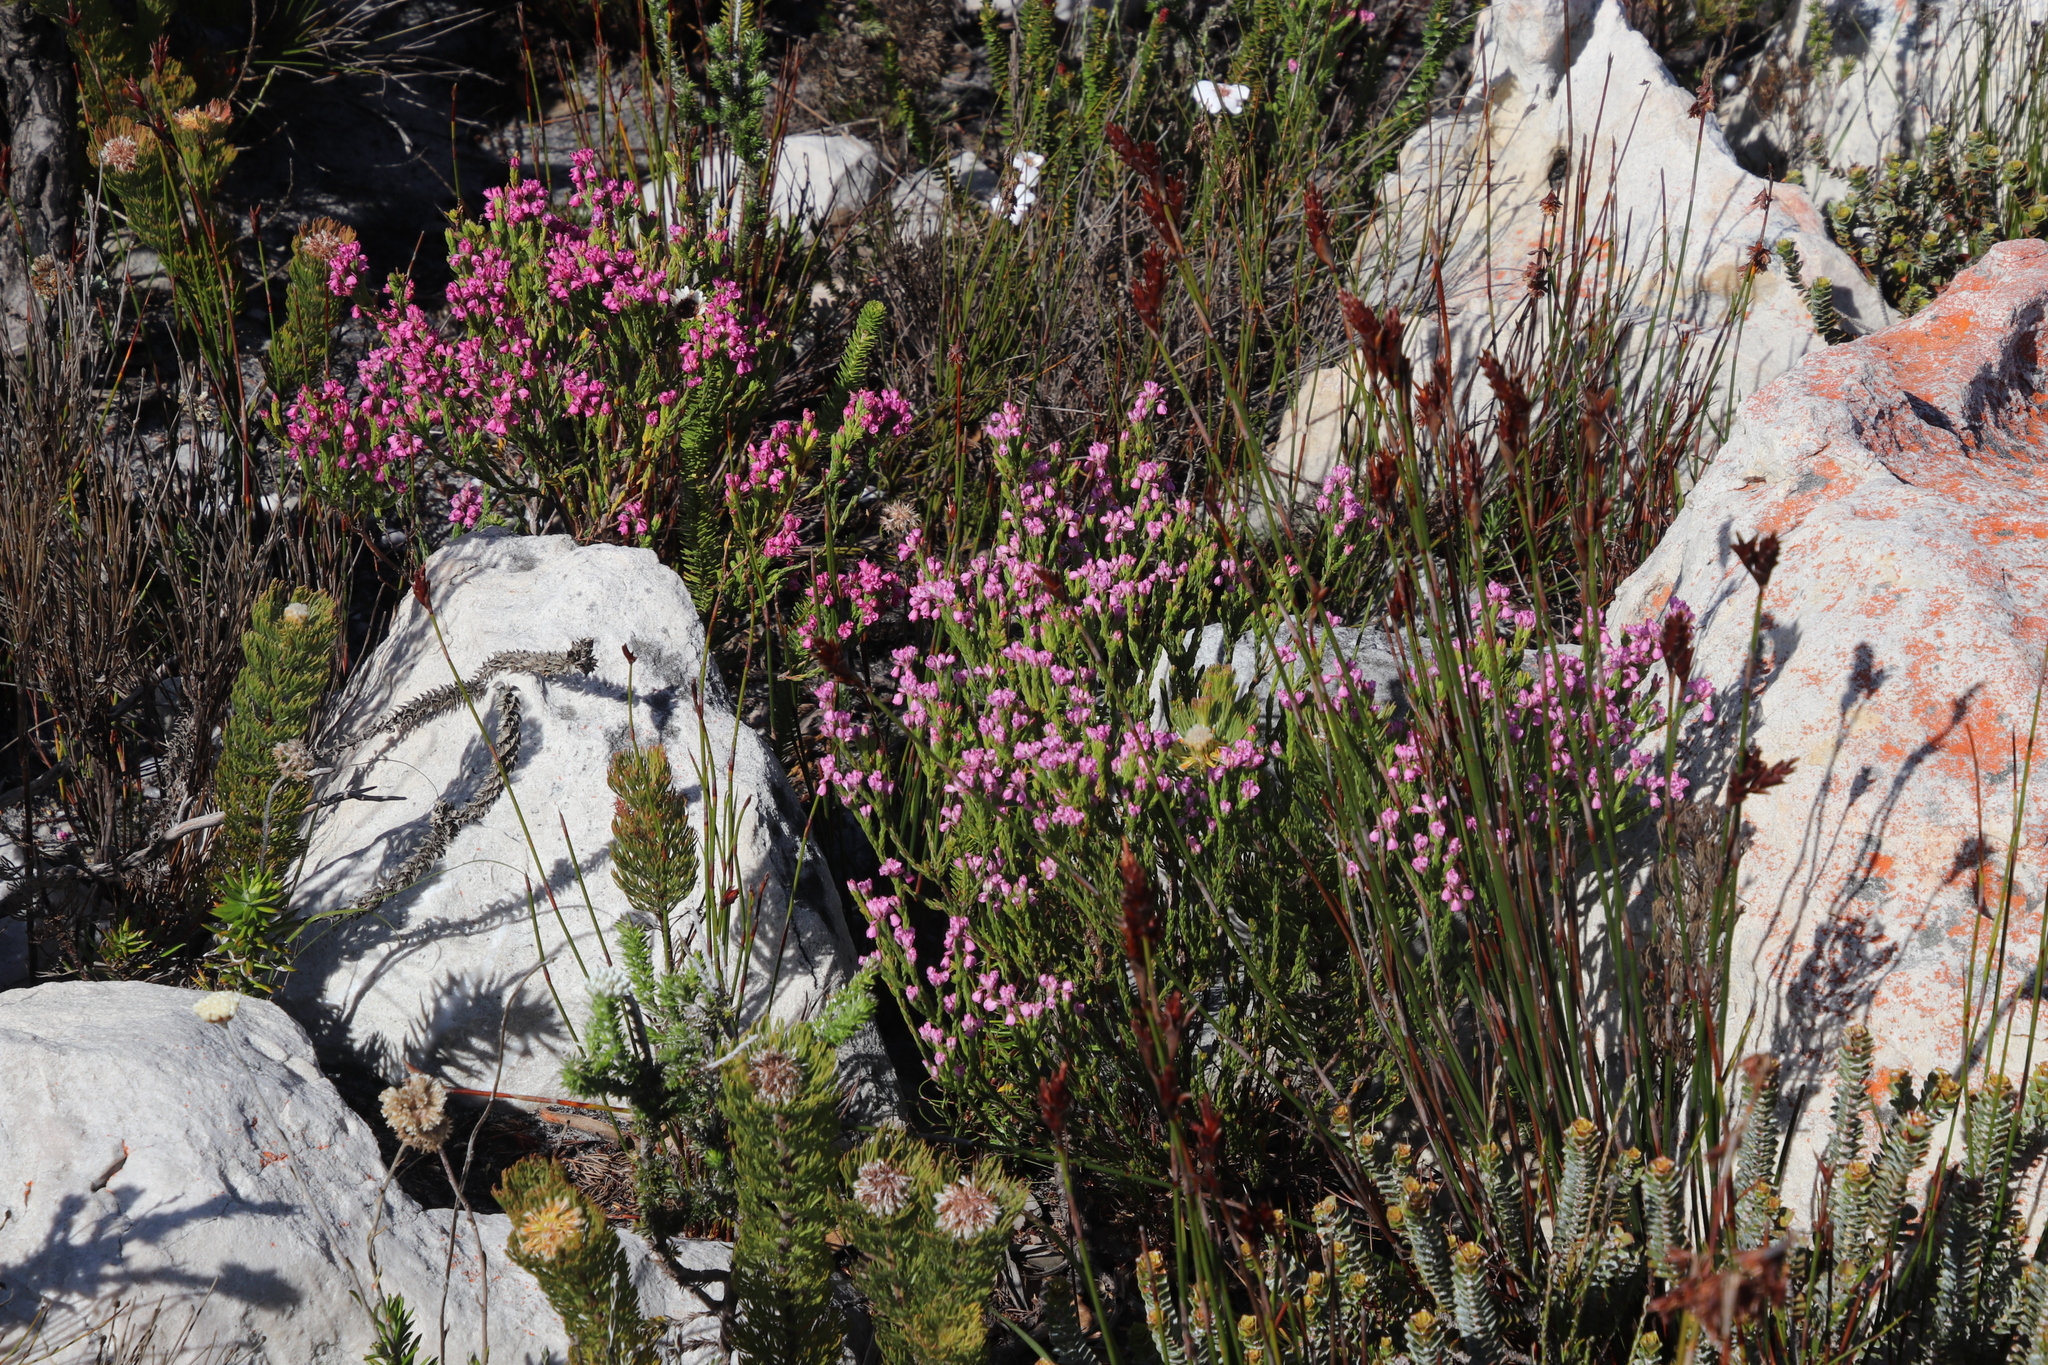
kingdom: Plantae
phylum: Tracheophyta
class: Magnoliopsida
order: Ericales
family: Ericaceae
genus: Erica
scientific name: Erica corifolia
